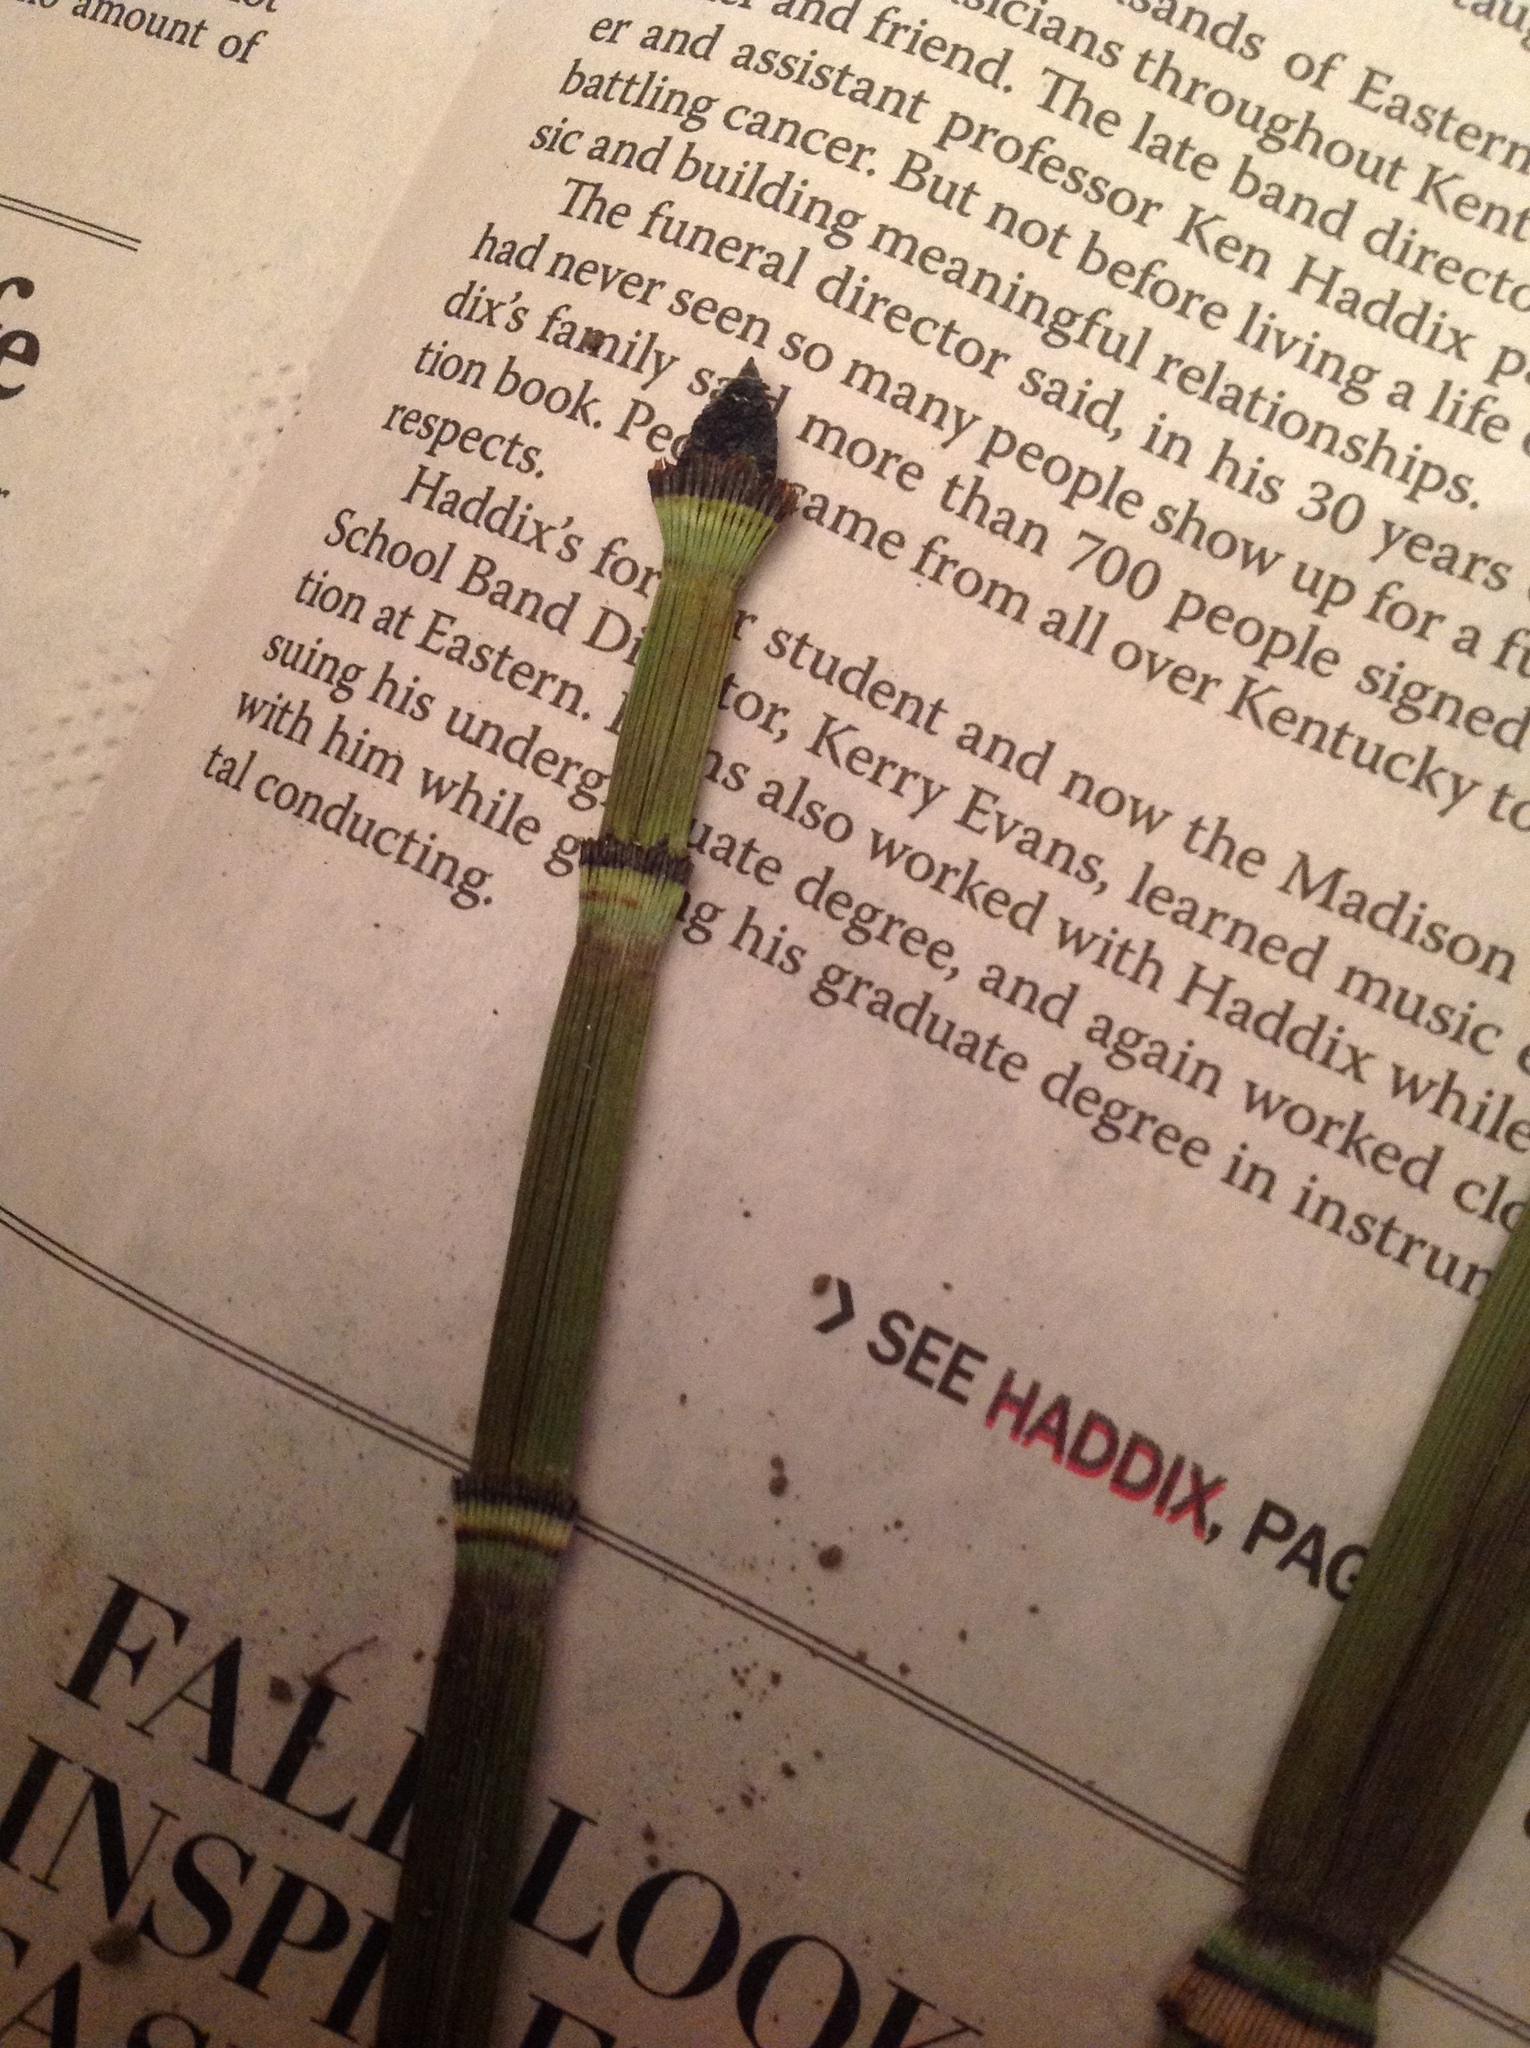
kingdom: Plantae
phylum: Tracheophyta
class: Polypodiopsida
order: Equisetales
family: Equisetaceae
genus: Equisetum
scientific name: Equisetum hyemale
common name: Rough horsetail
